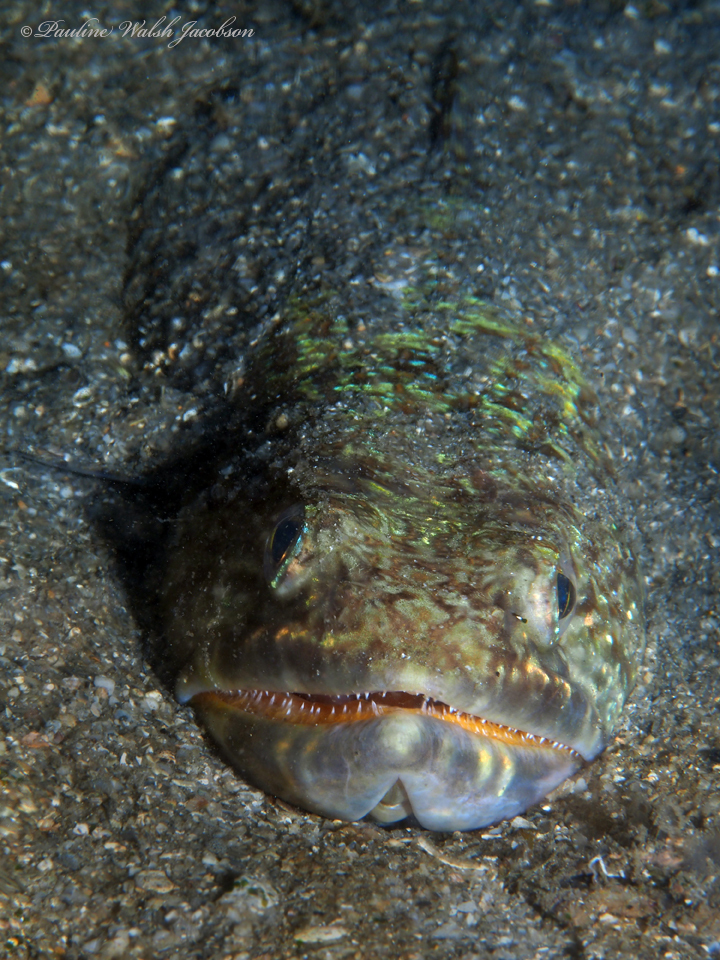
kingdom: Animalia
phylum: Chordata
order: Aulopiformes
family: Synodontidae
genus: Synodus
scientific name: Synodus intermedius
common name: Sand diver
